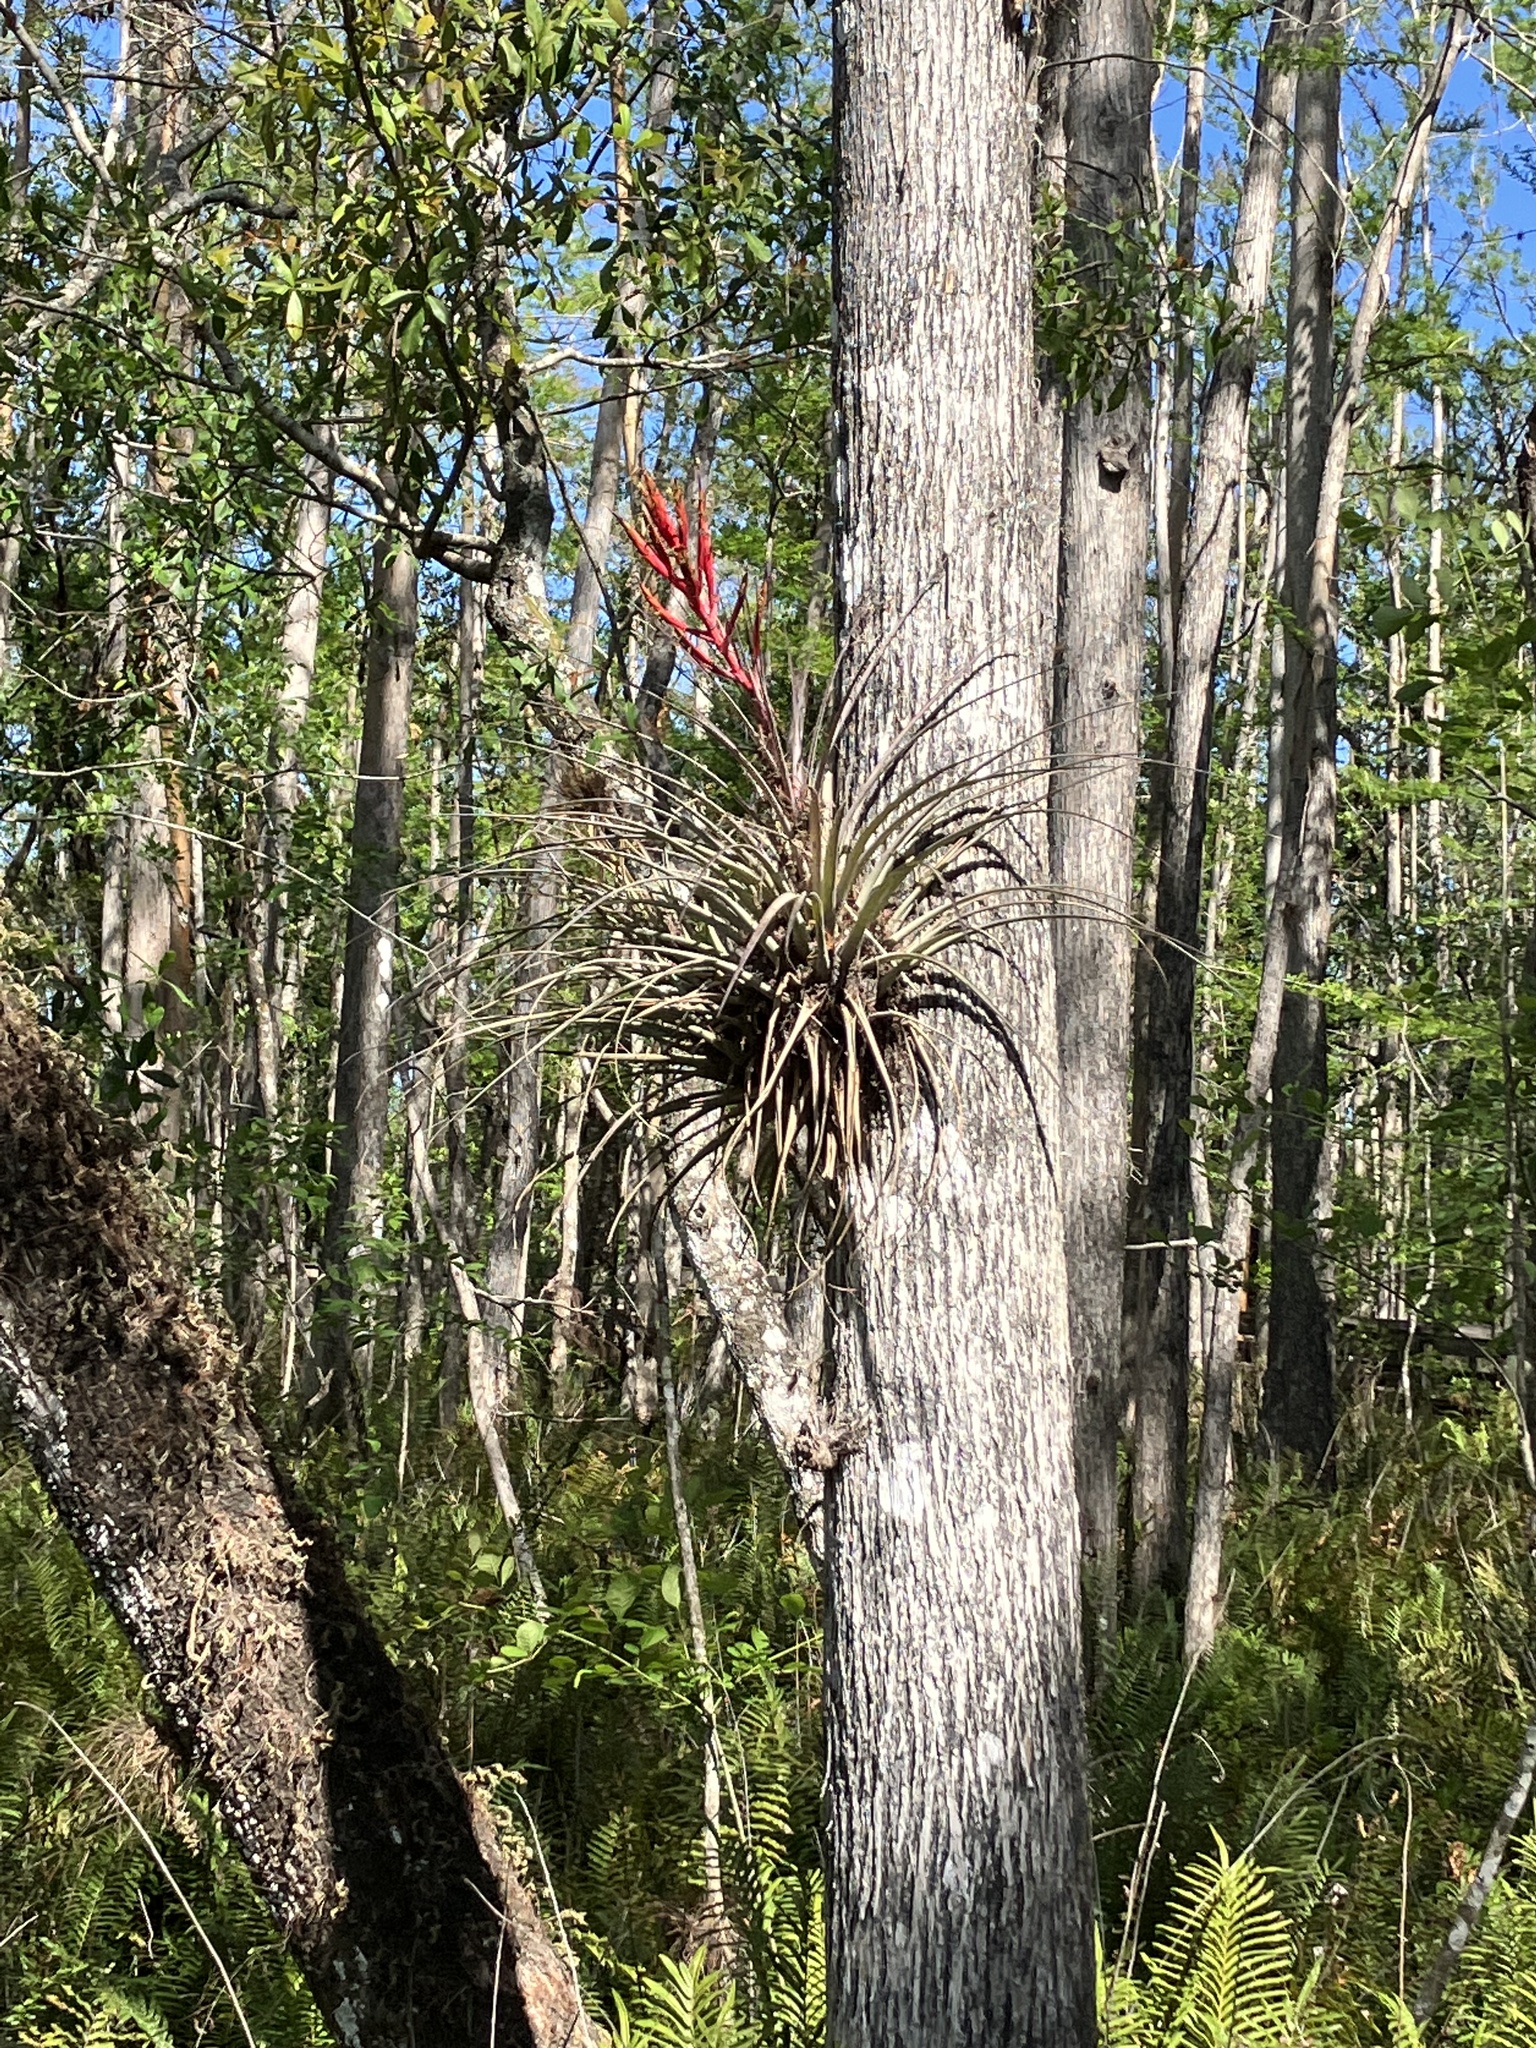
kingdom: Plantae
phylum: Tracheophyta
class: Liliopsida
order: Poales
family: Bromeliaceae
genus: Tillandsia
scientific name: Tillandsia fasciculata
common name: Giant airplant
